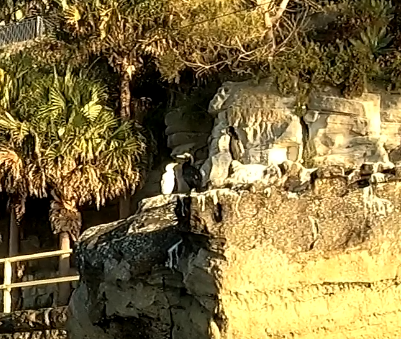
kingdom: Animalia
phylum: Chordata
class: Aves
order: Suliformes
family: Phalacrocoracidae
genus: Microcarbo
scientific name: Microcarbo melanoleucos
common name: Little pied cormorant
